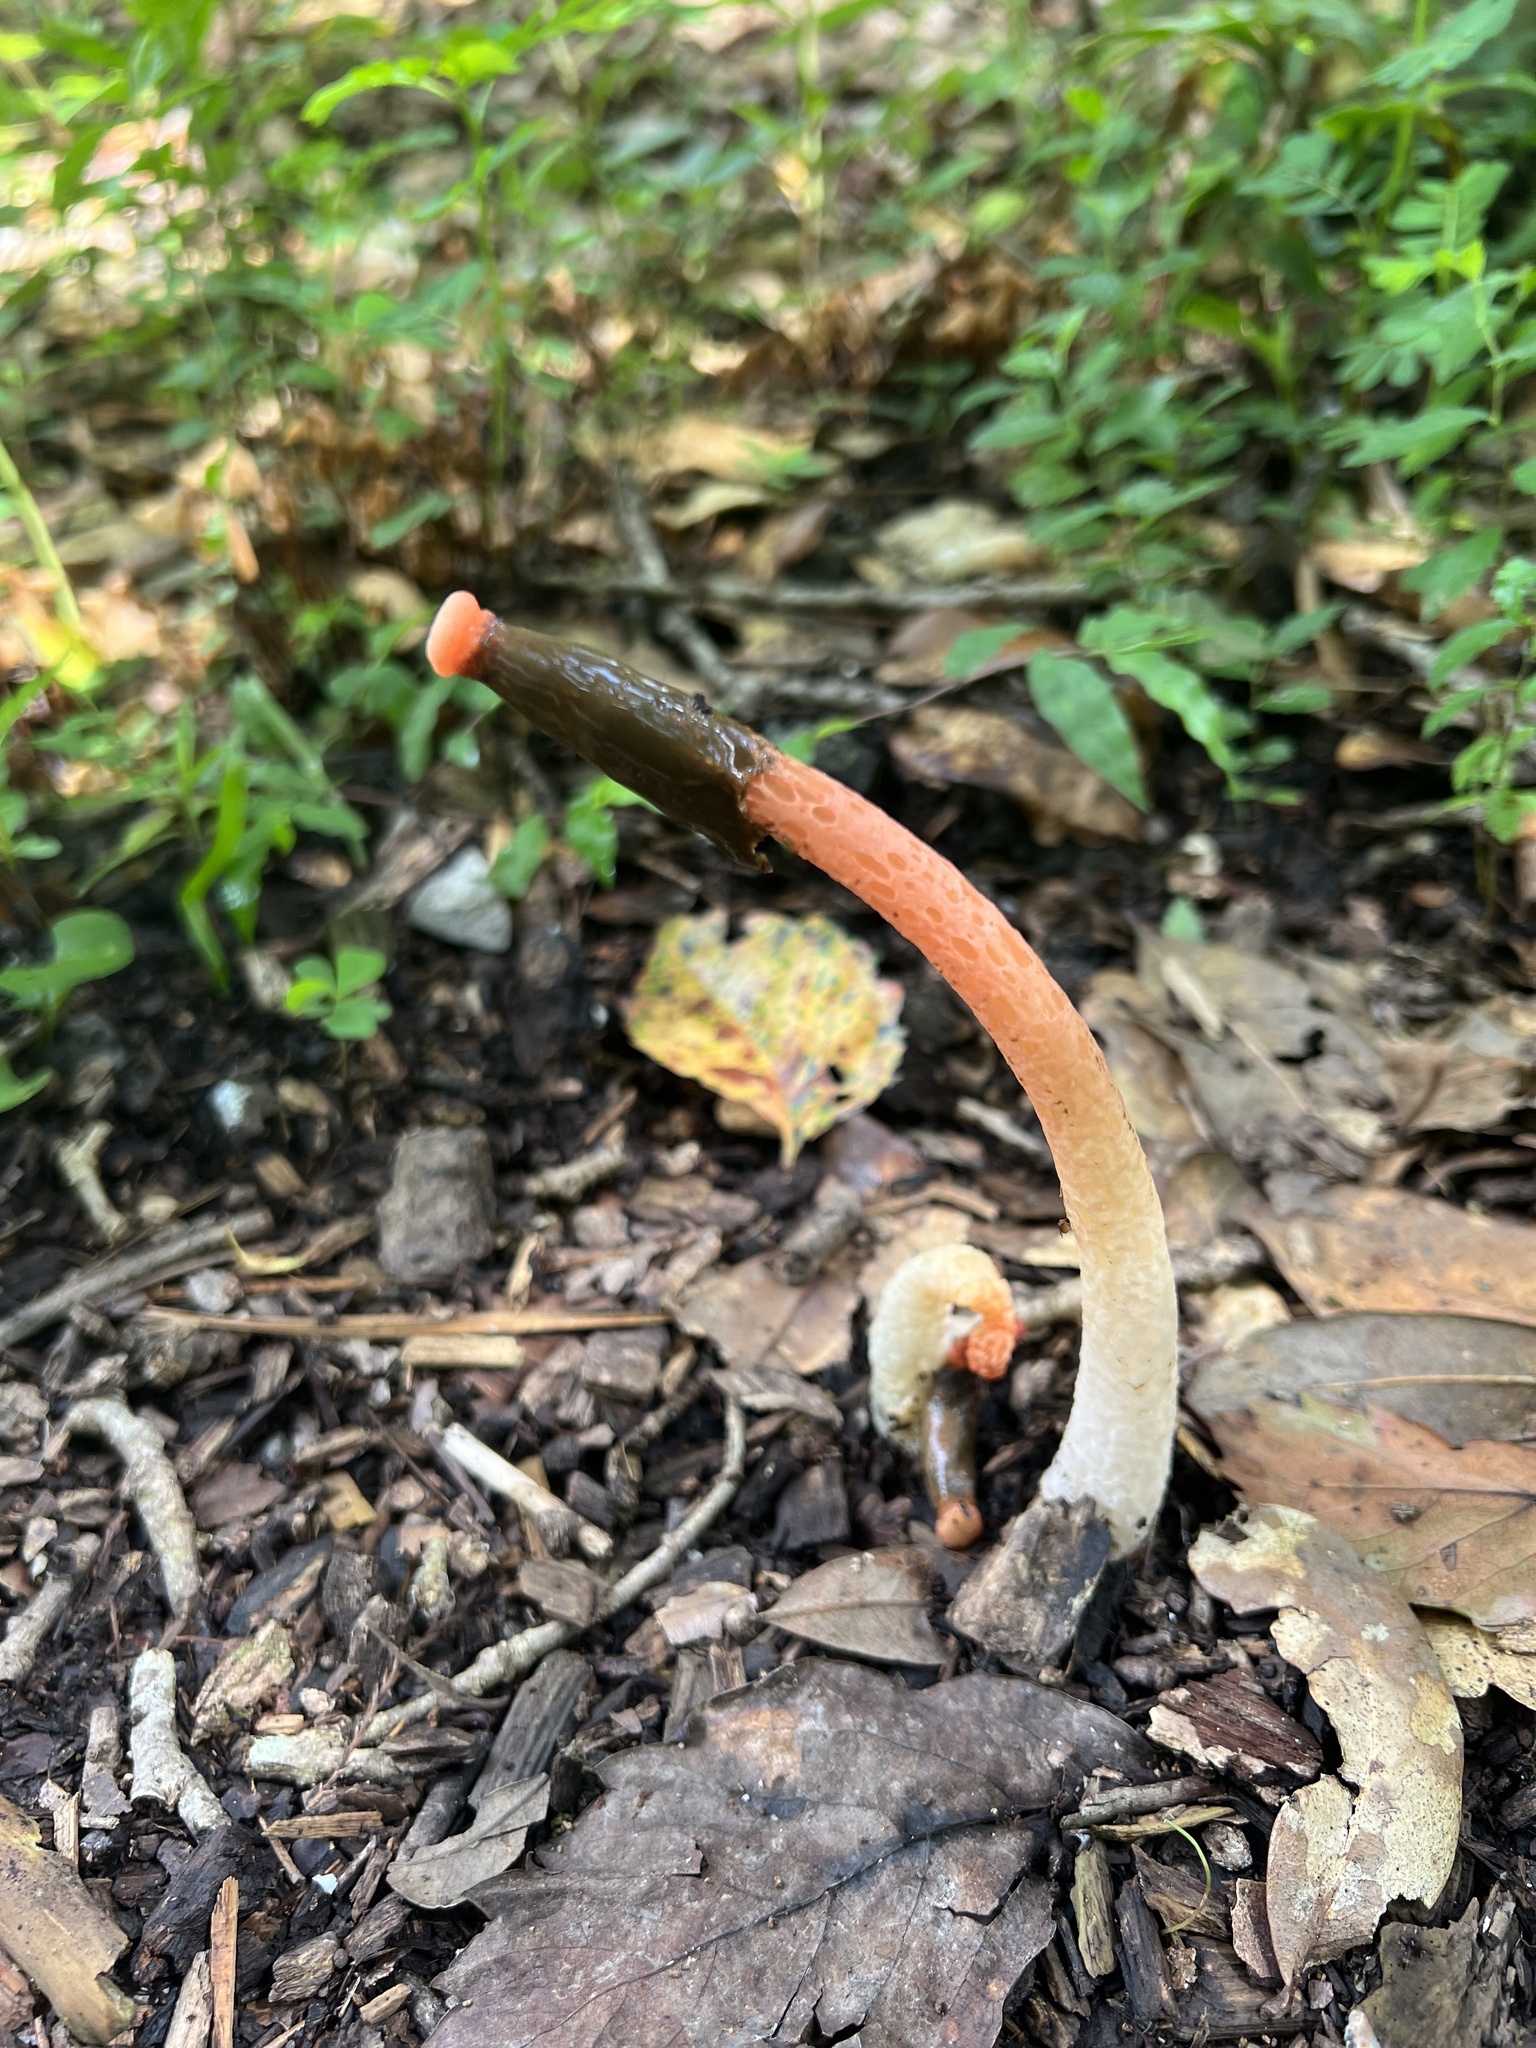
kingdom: Fungi
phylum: Basidiomycota
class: Agaricomycetes
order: Phallales
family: Phallaceae
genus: Phallus
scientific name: Phallus rugulosus
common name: Wrinkly stinkhorn
